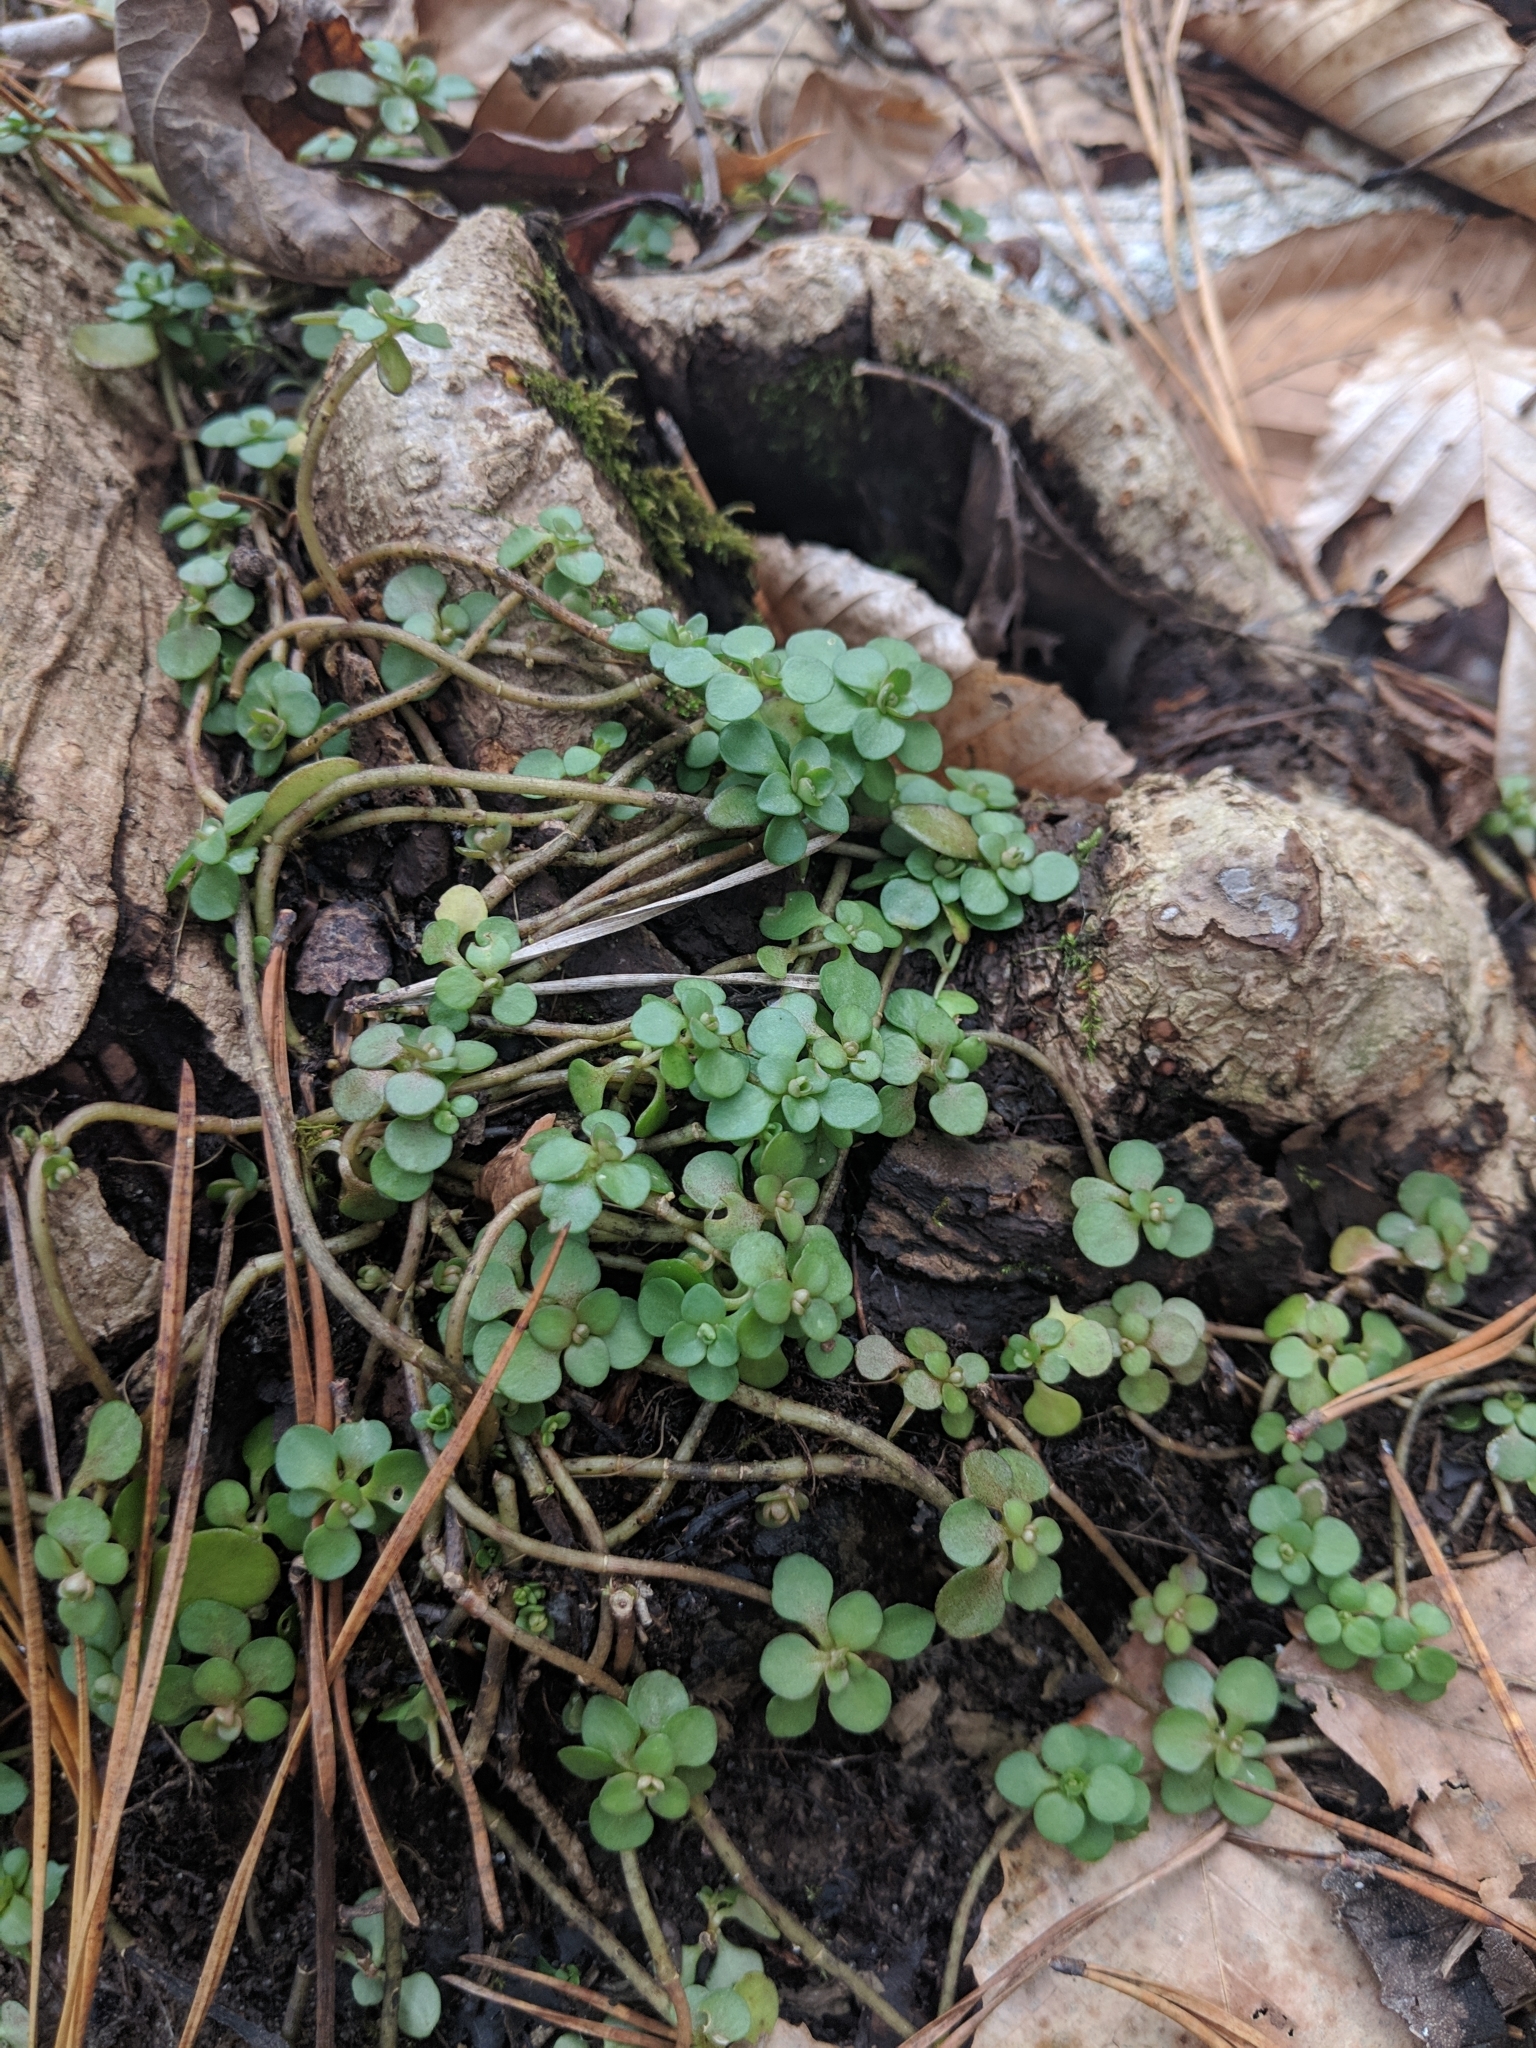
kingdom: Plantae
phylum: Tracheophyta
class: Magnoliopsida
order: Saxifragales
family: Crassulaceae
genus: Sedum
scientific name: Sedum ternatum
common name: Wild stonecrop
